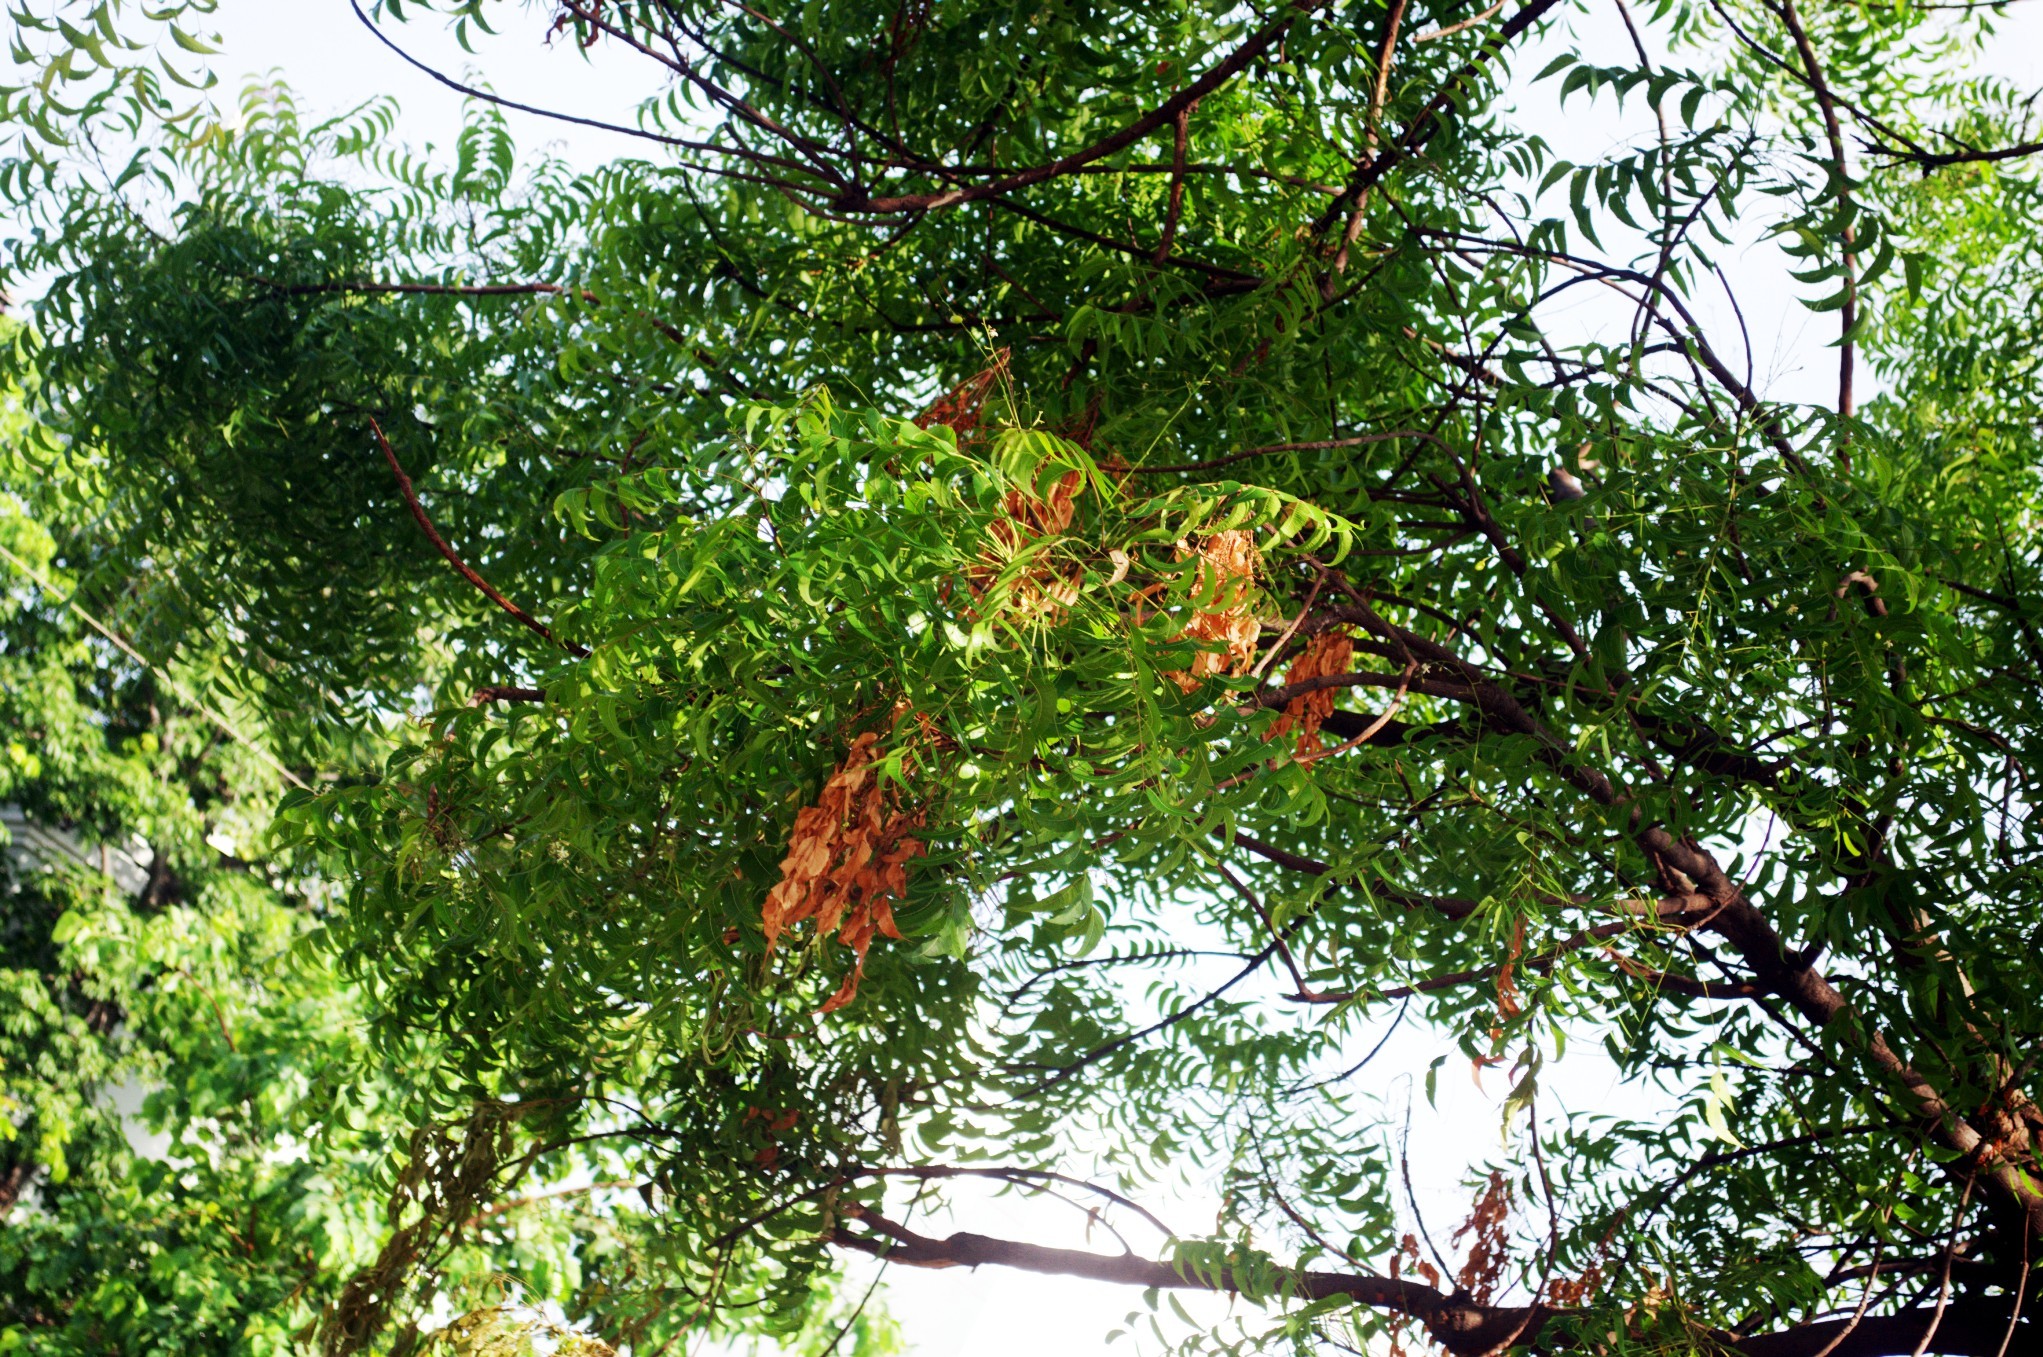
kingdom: Plantae
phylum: Tracheophyta
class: Magnoliopsida
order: Sapindales
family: Meliaceae
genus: Azadirachta
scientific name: Azadirachta indica
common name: Neem
